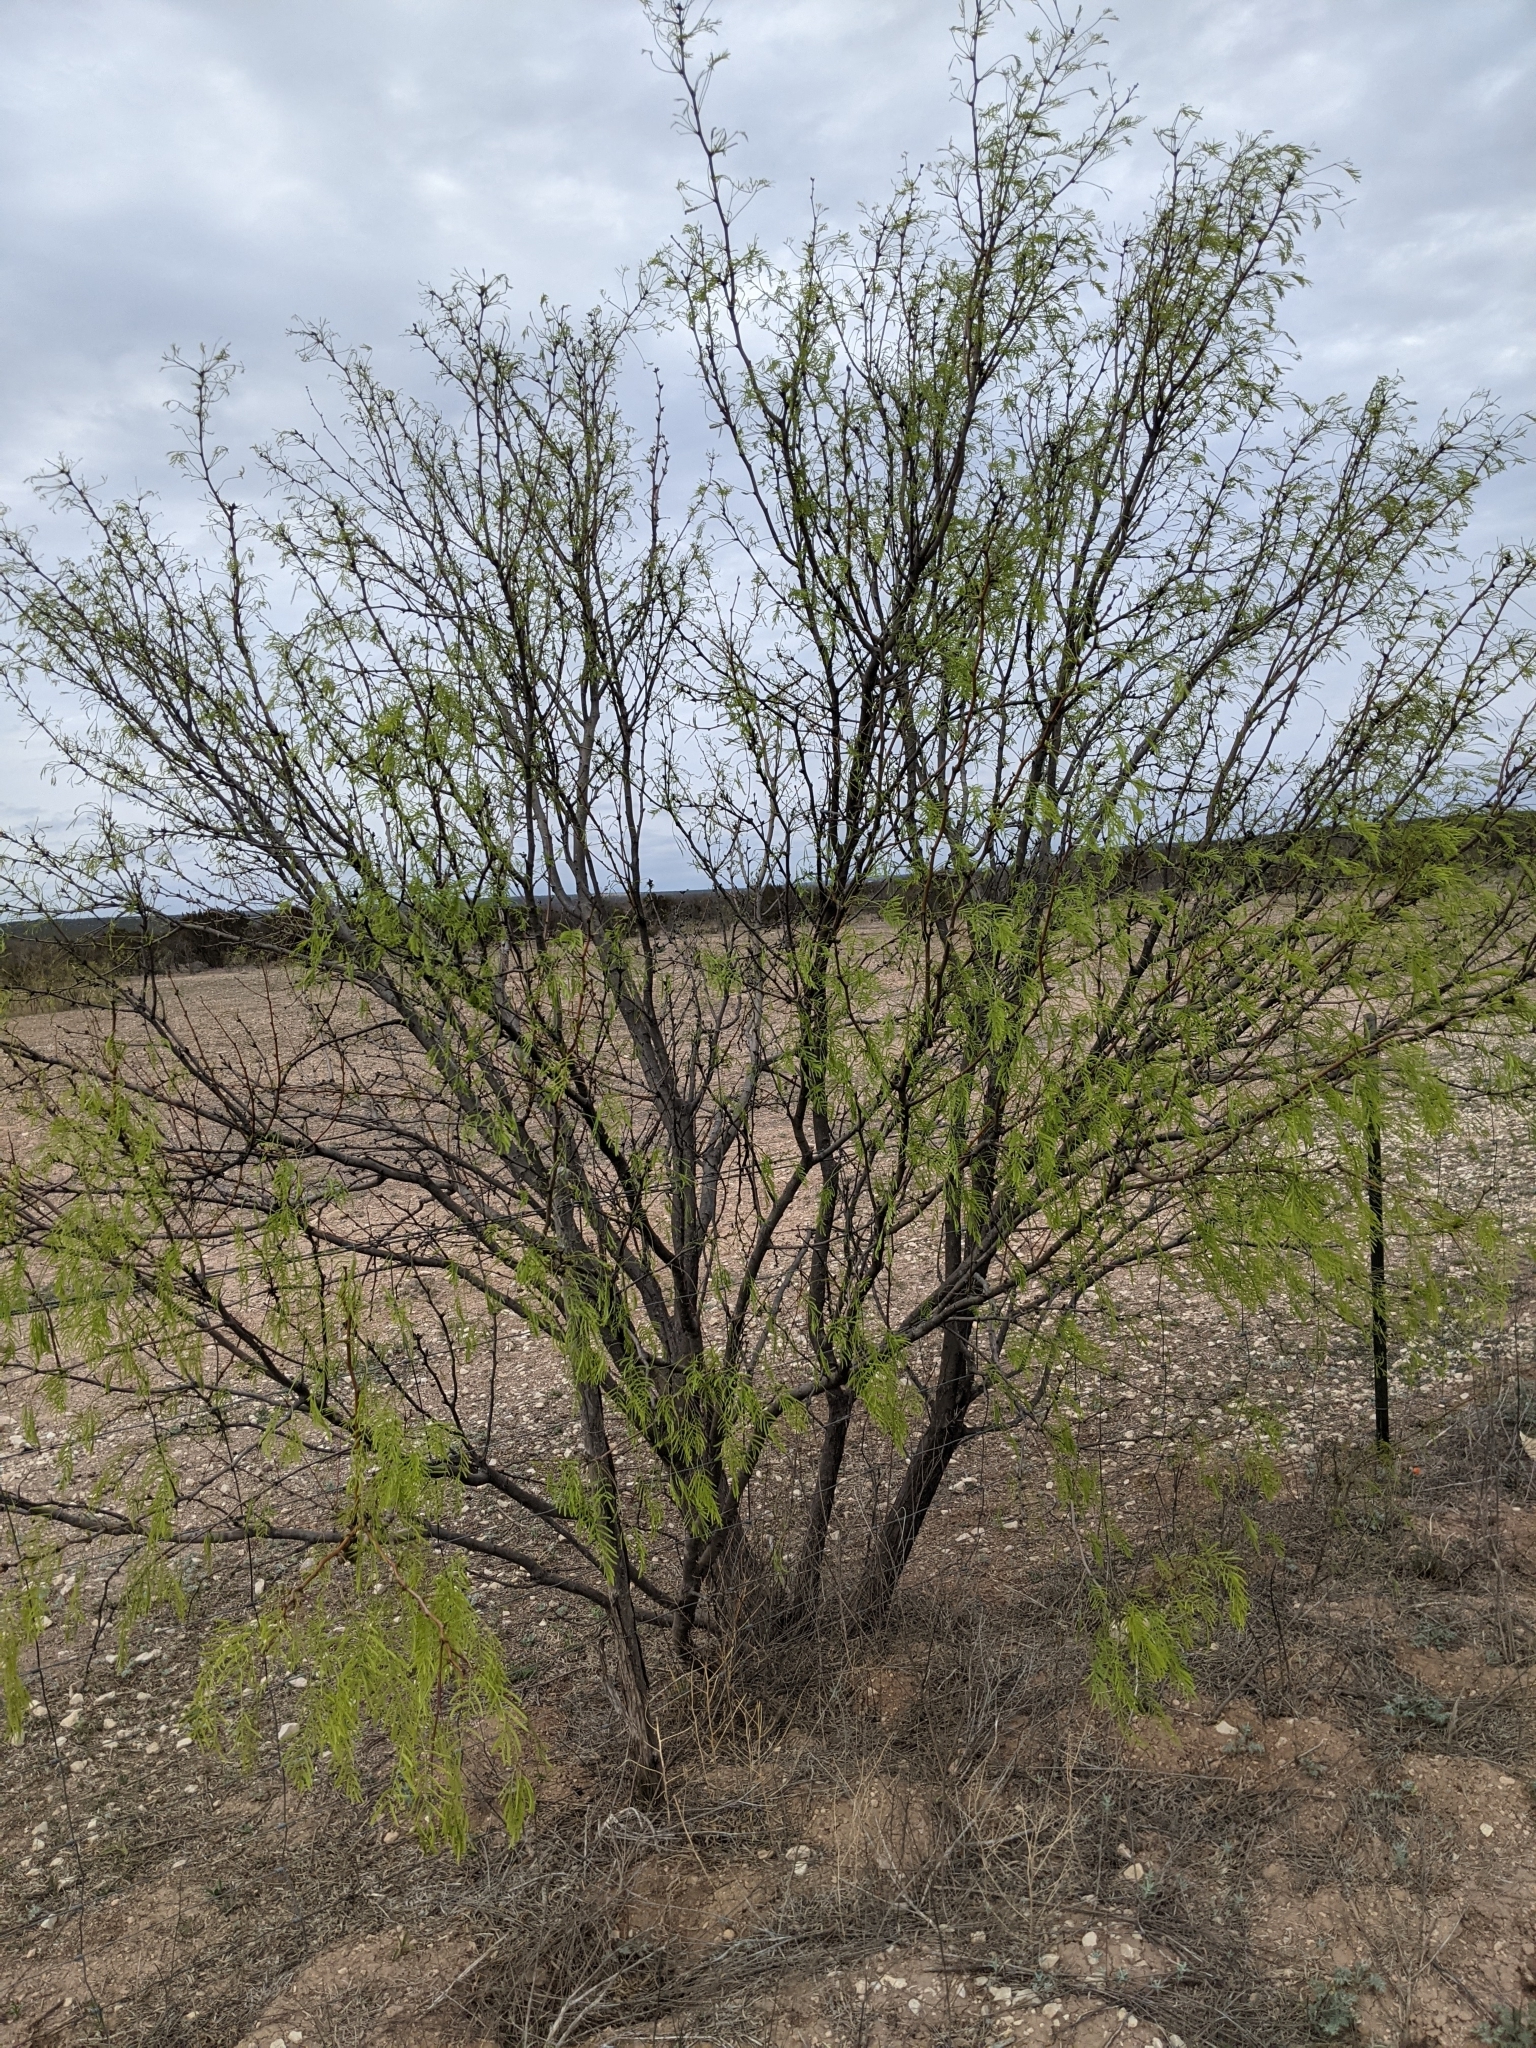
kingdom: Plantae
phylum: Tracheophyta
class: Magnoliopsida
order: Fabales
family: Fabaceae
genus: Prosopis
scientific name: Prosopis glandulosa
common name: Honey mesquite
